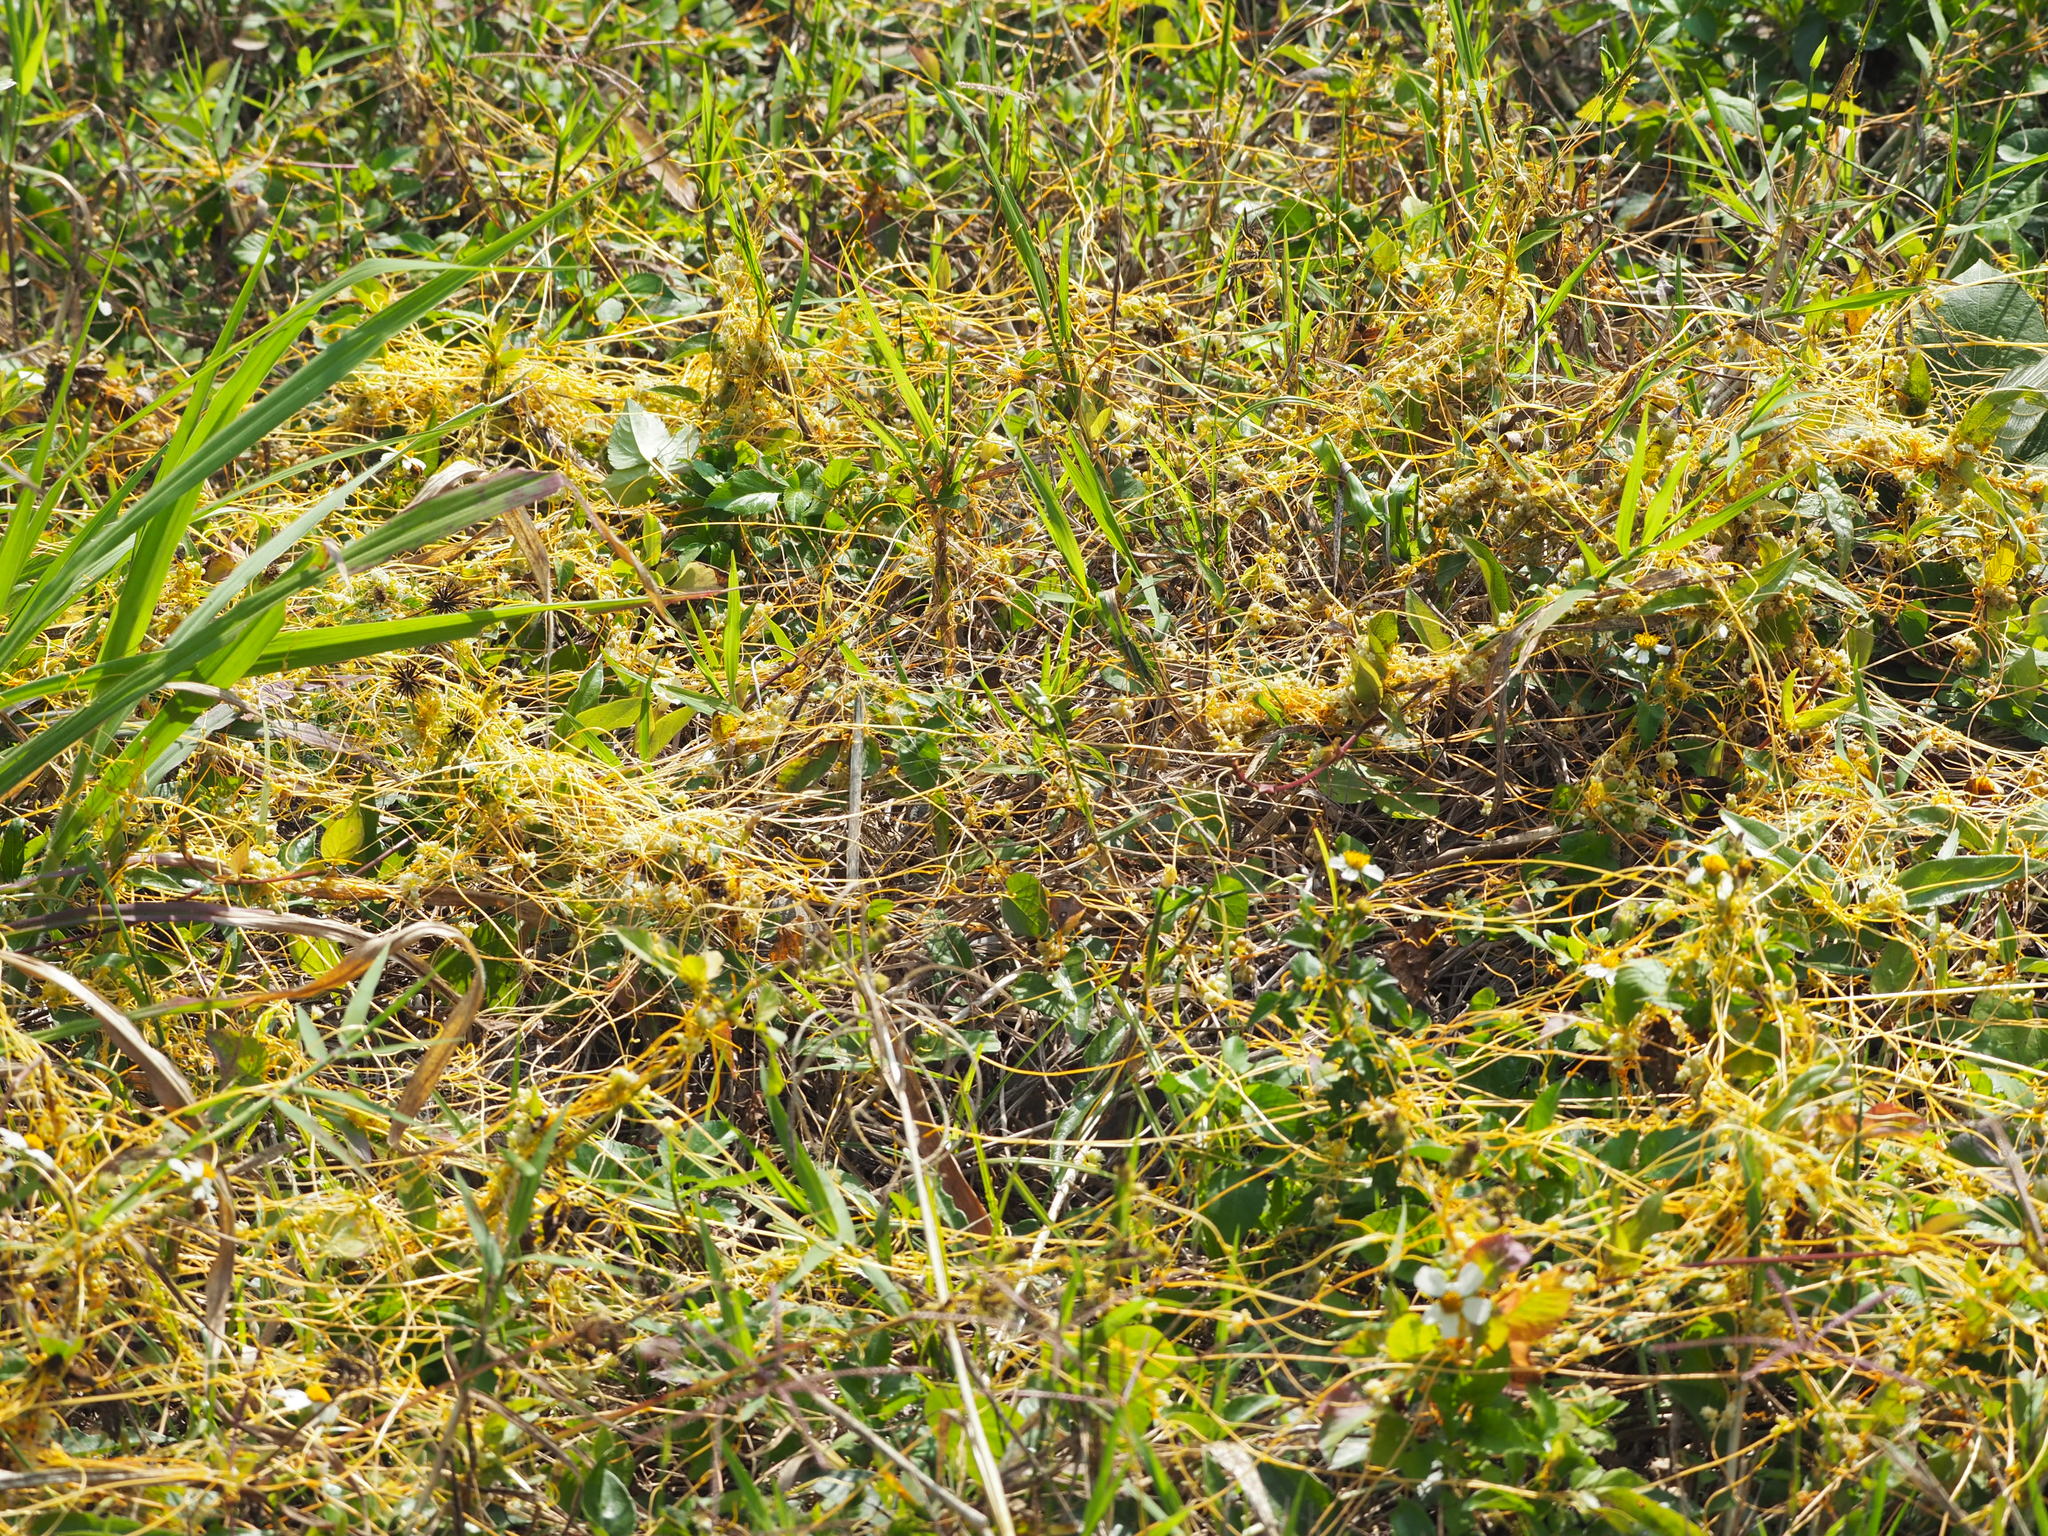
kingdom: Plantae
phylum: Tracheophyta
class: Magnoliopsida
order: Solanales
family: Convolvulaceae
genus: Cuscuta
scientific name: Cuscuta campestris
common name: Yellow dodder
